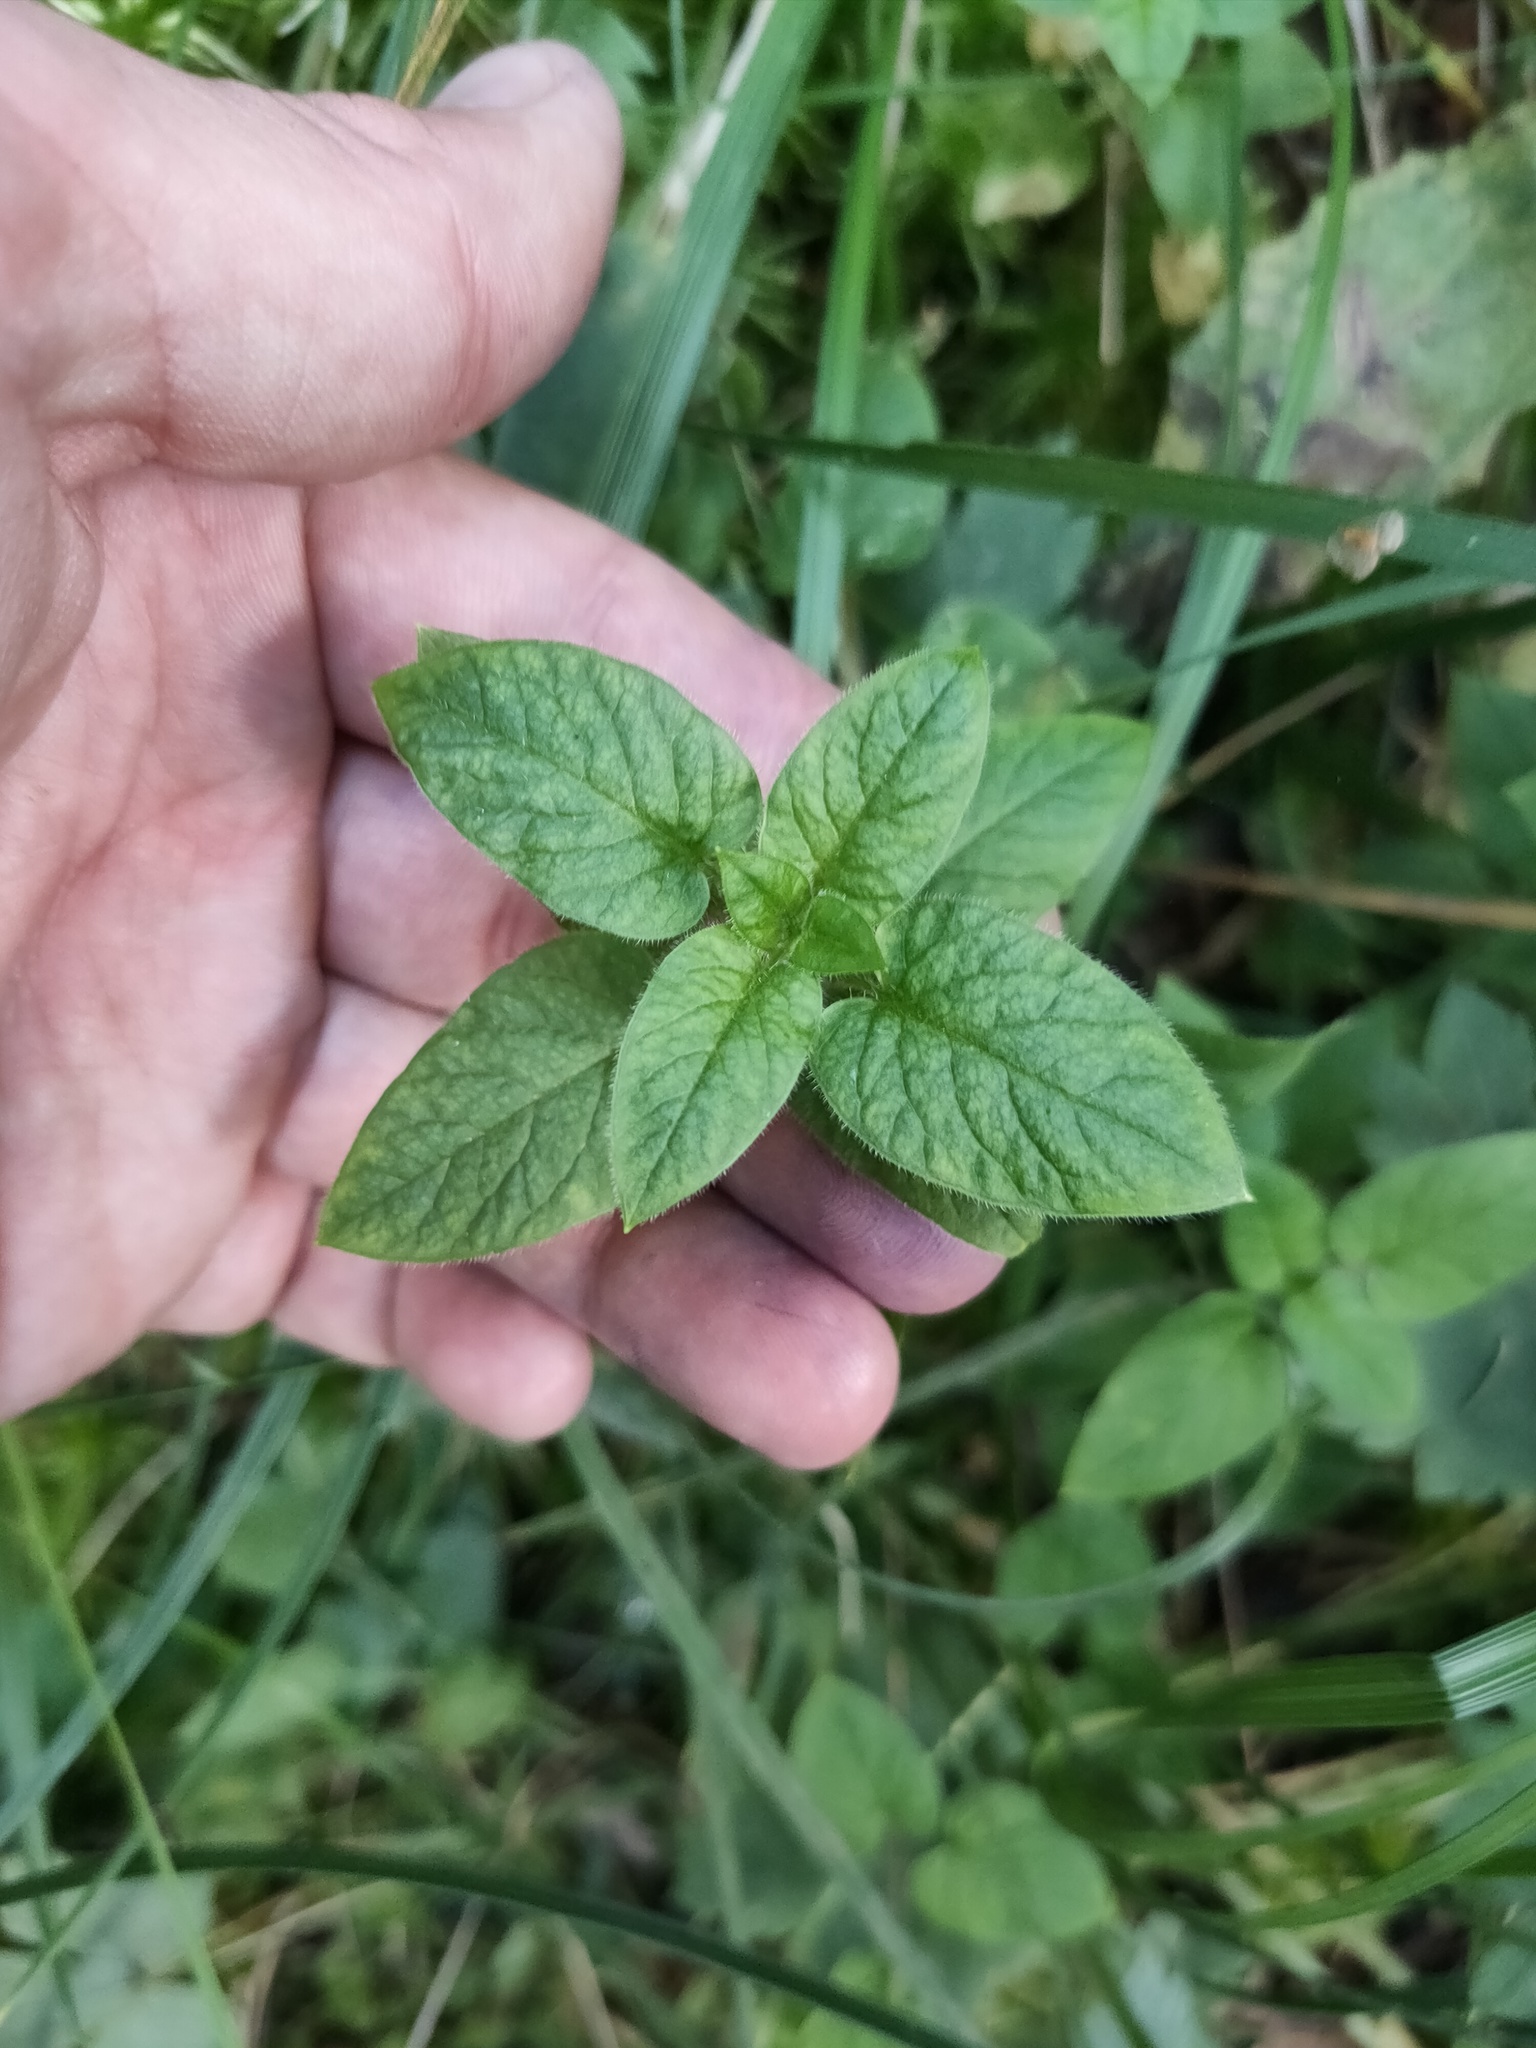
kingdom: Plantae
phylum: Tracheophyta
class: Magnoliopsida
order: Caryophyllales
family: Caryophyllaceae
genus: Stellaria
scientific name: Stellaria nemorum
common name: Wood stitchwort
